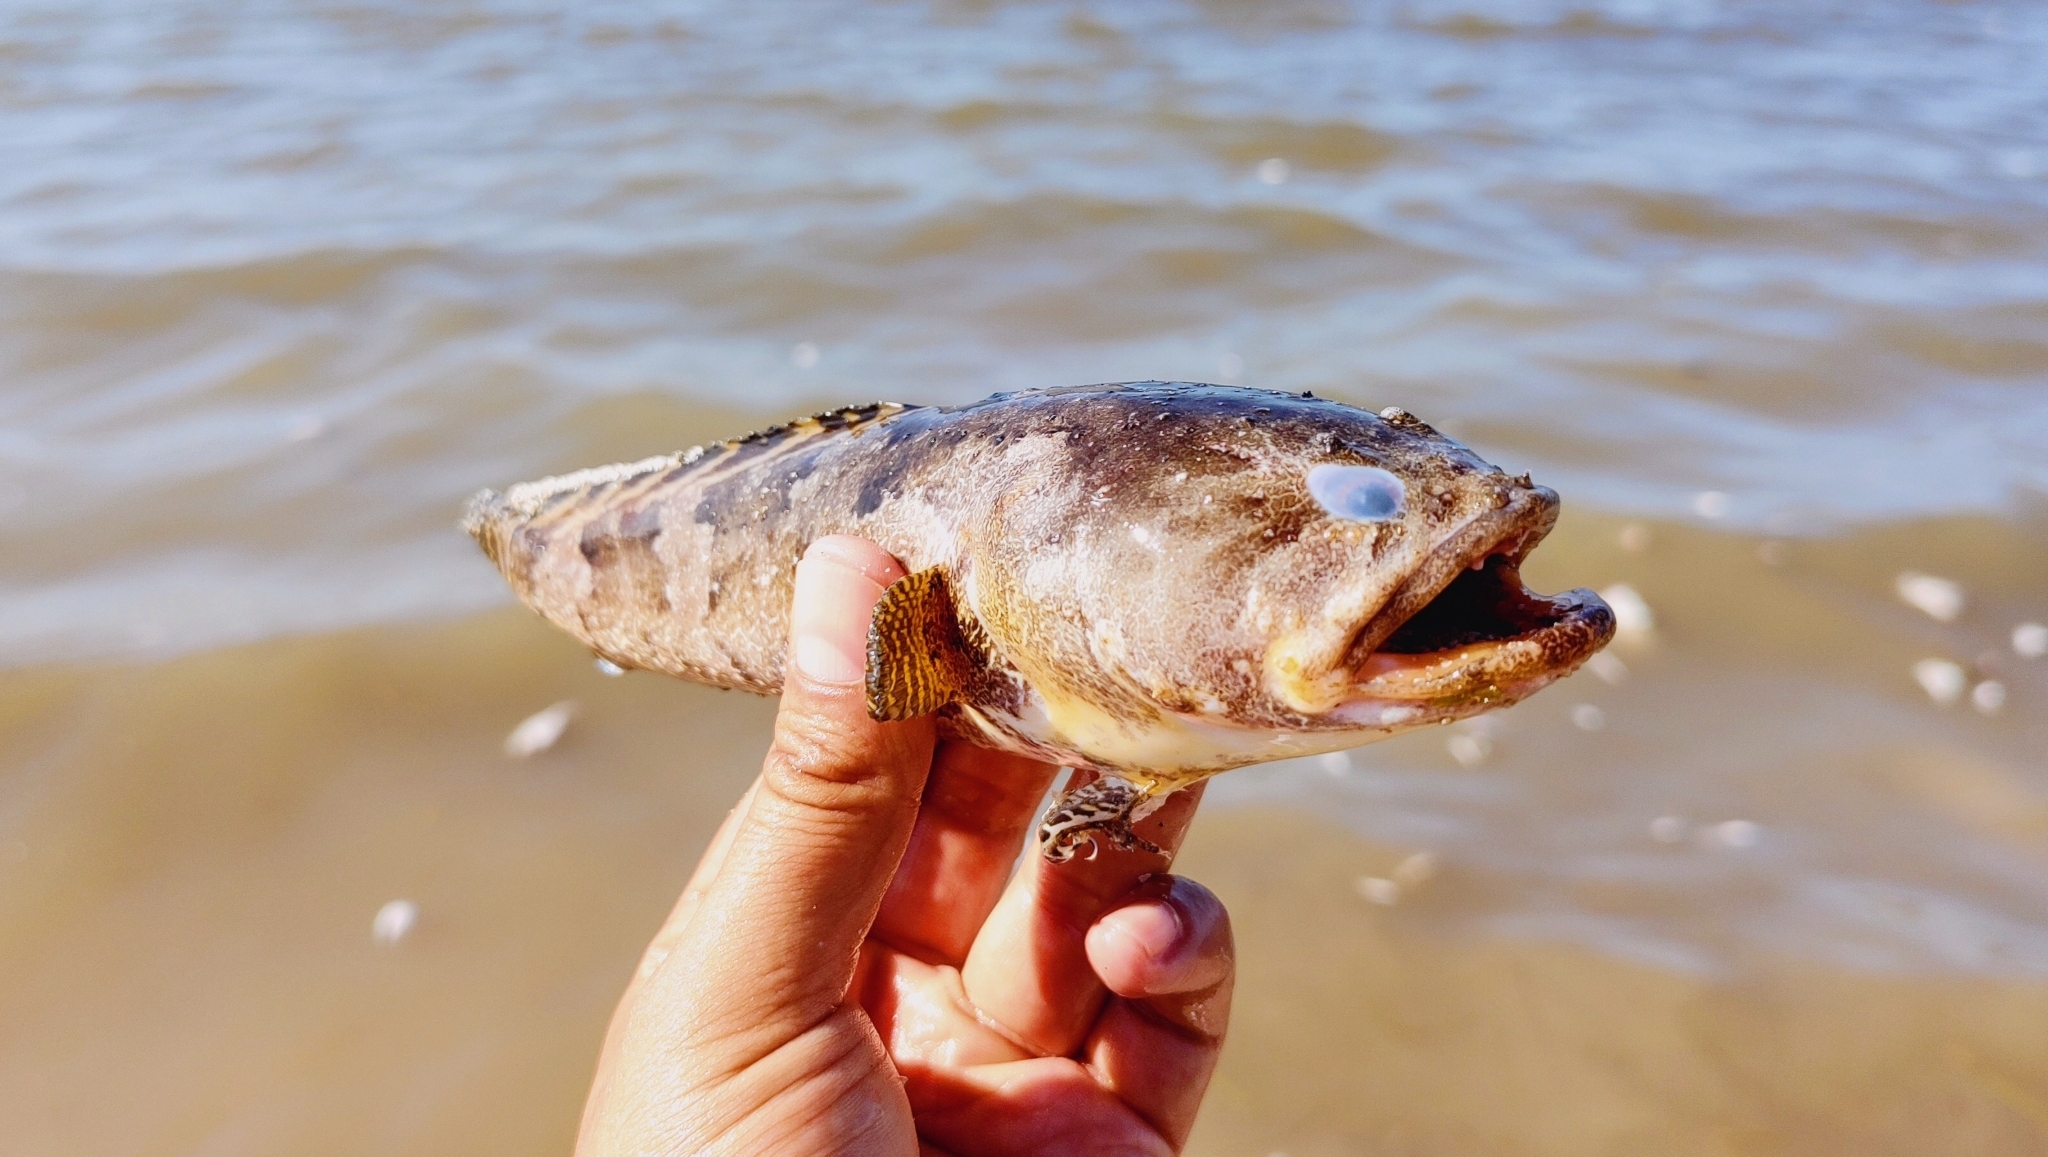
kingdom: Animalia
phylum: Chordata
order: Batrachoidiformes
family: Batrachoididae
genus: Opsanus
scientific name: Opsanus beta
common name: Gulf toadfish
